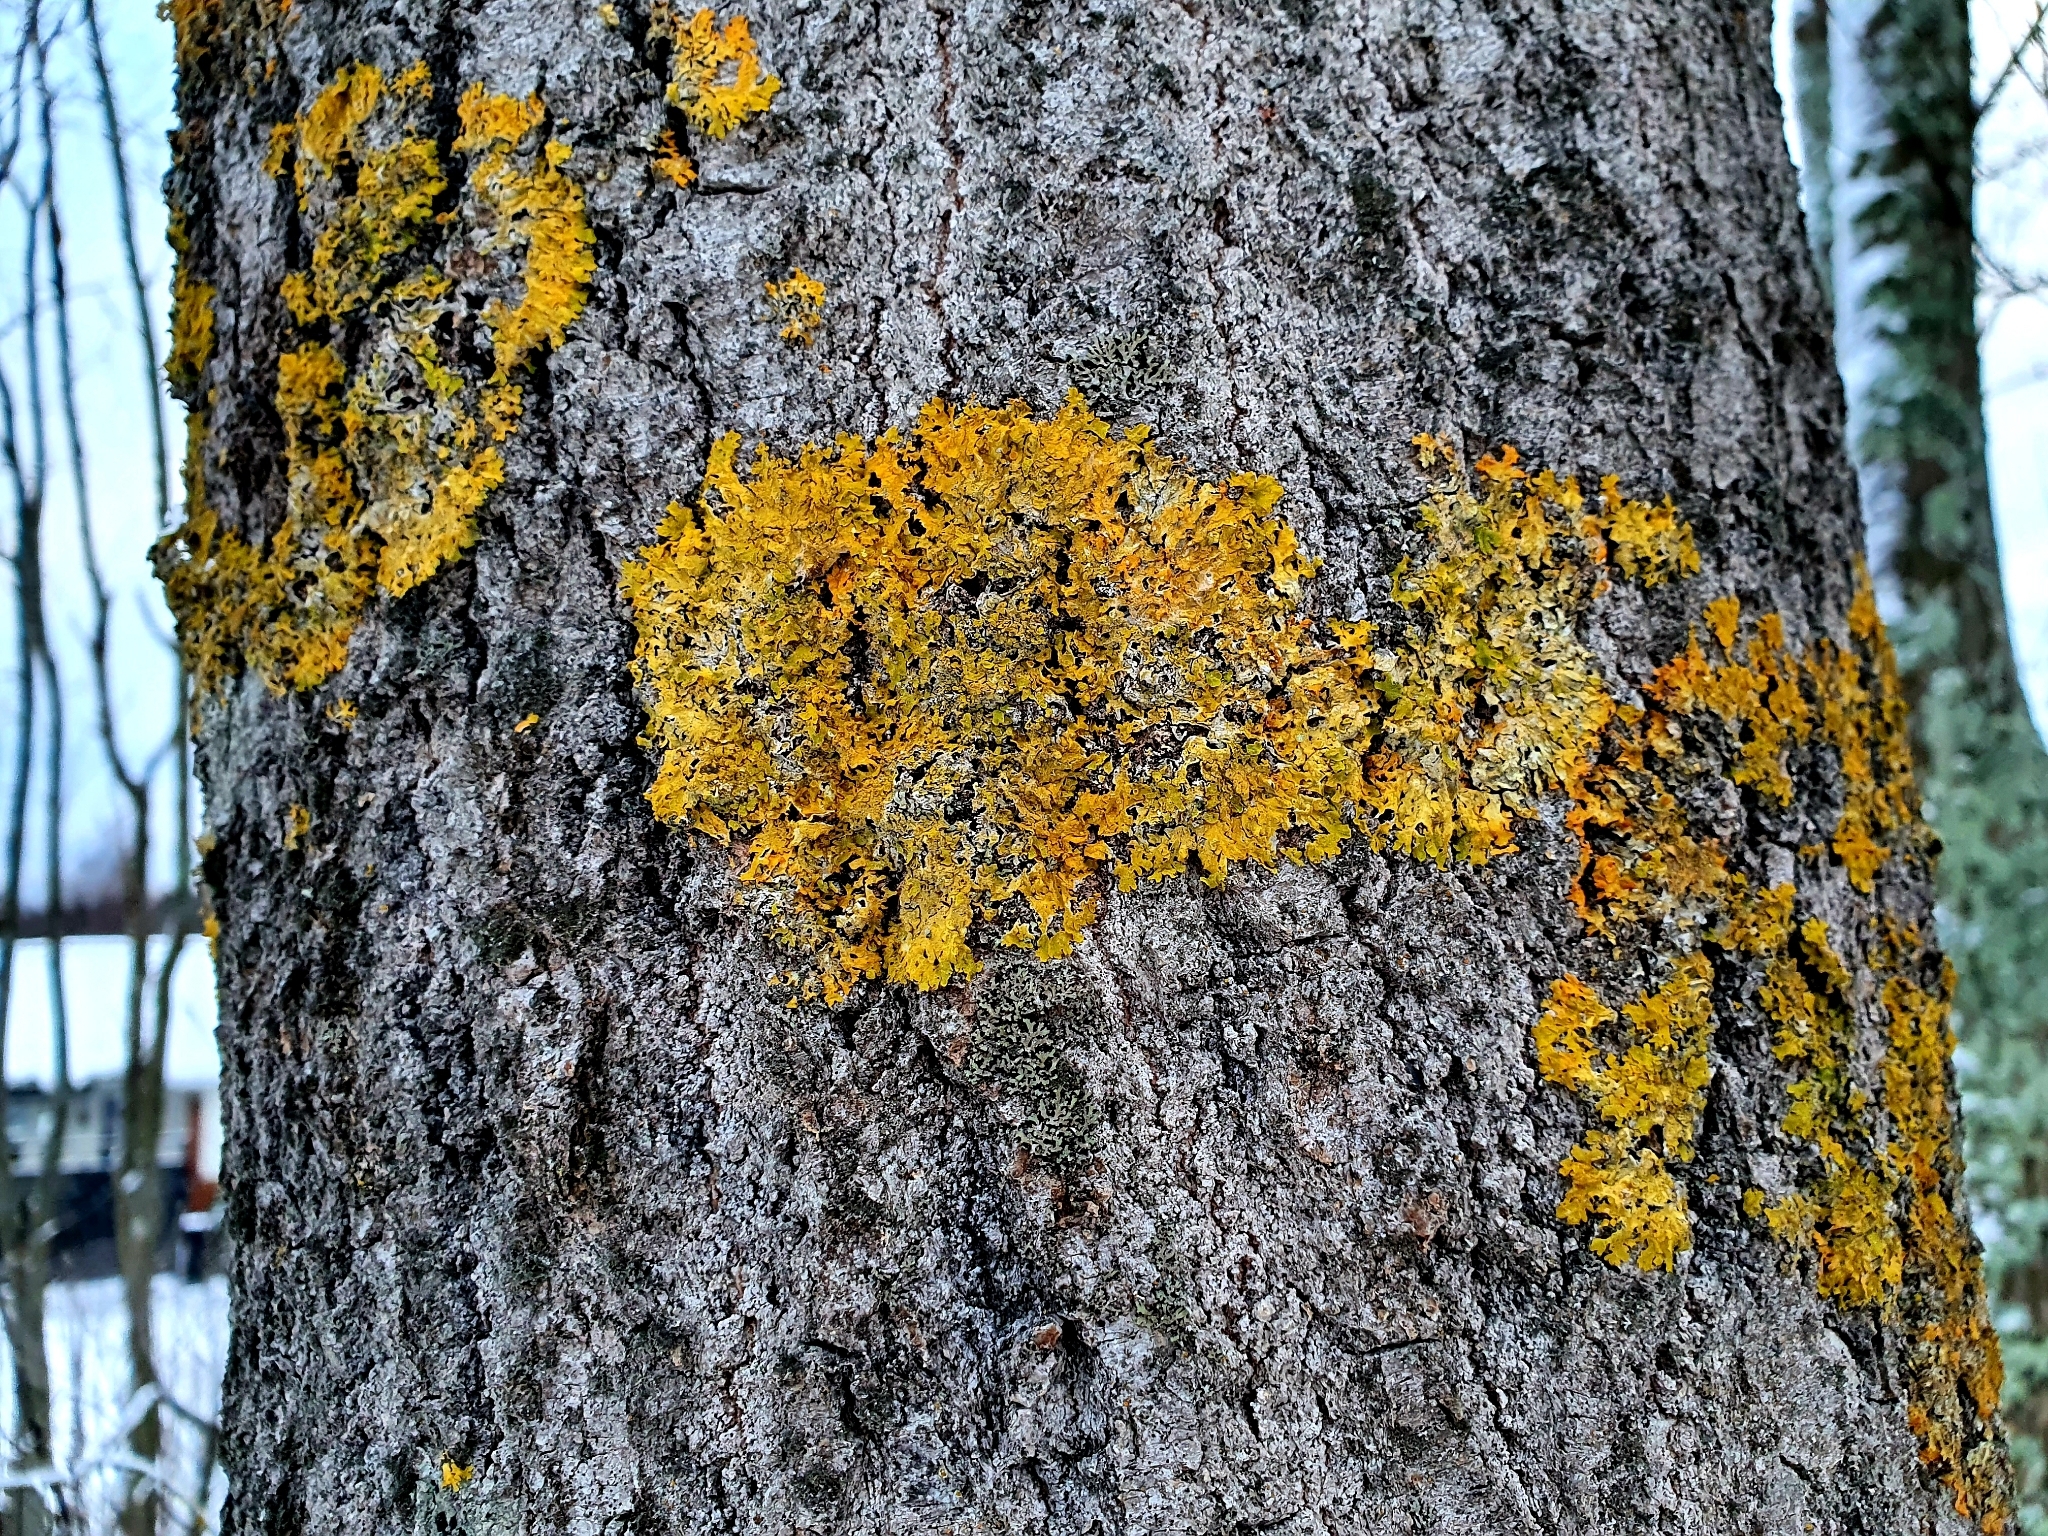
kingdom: Fungi
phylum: Ascomycota
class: Lecanoromycetes
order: Teloschistales
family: Teloschistaceae
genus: Xanthoria
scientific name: Xanthoria parietina
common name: Common orange lichen
